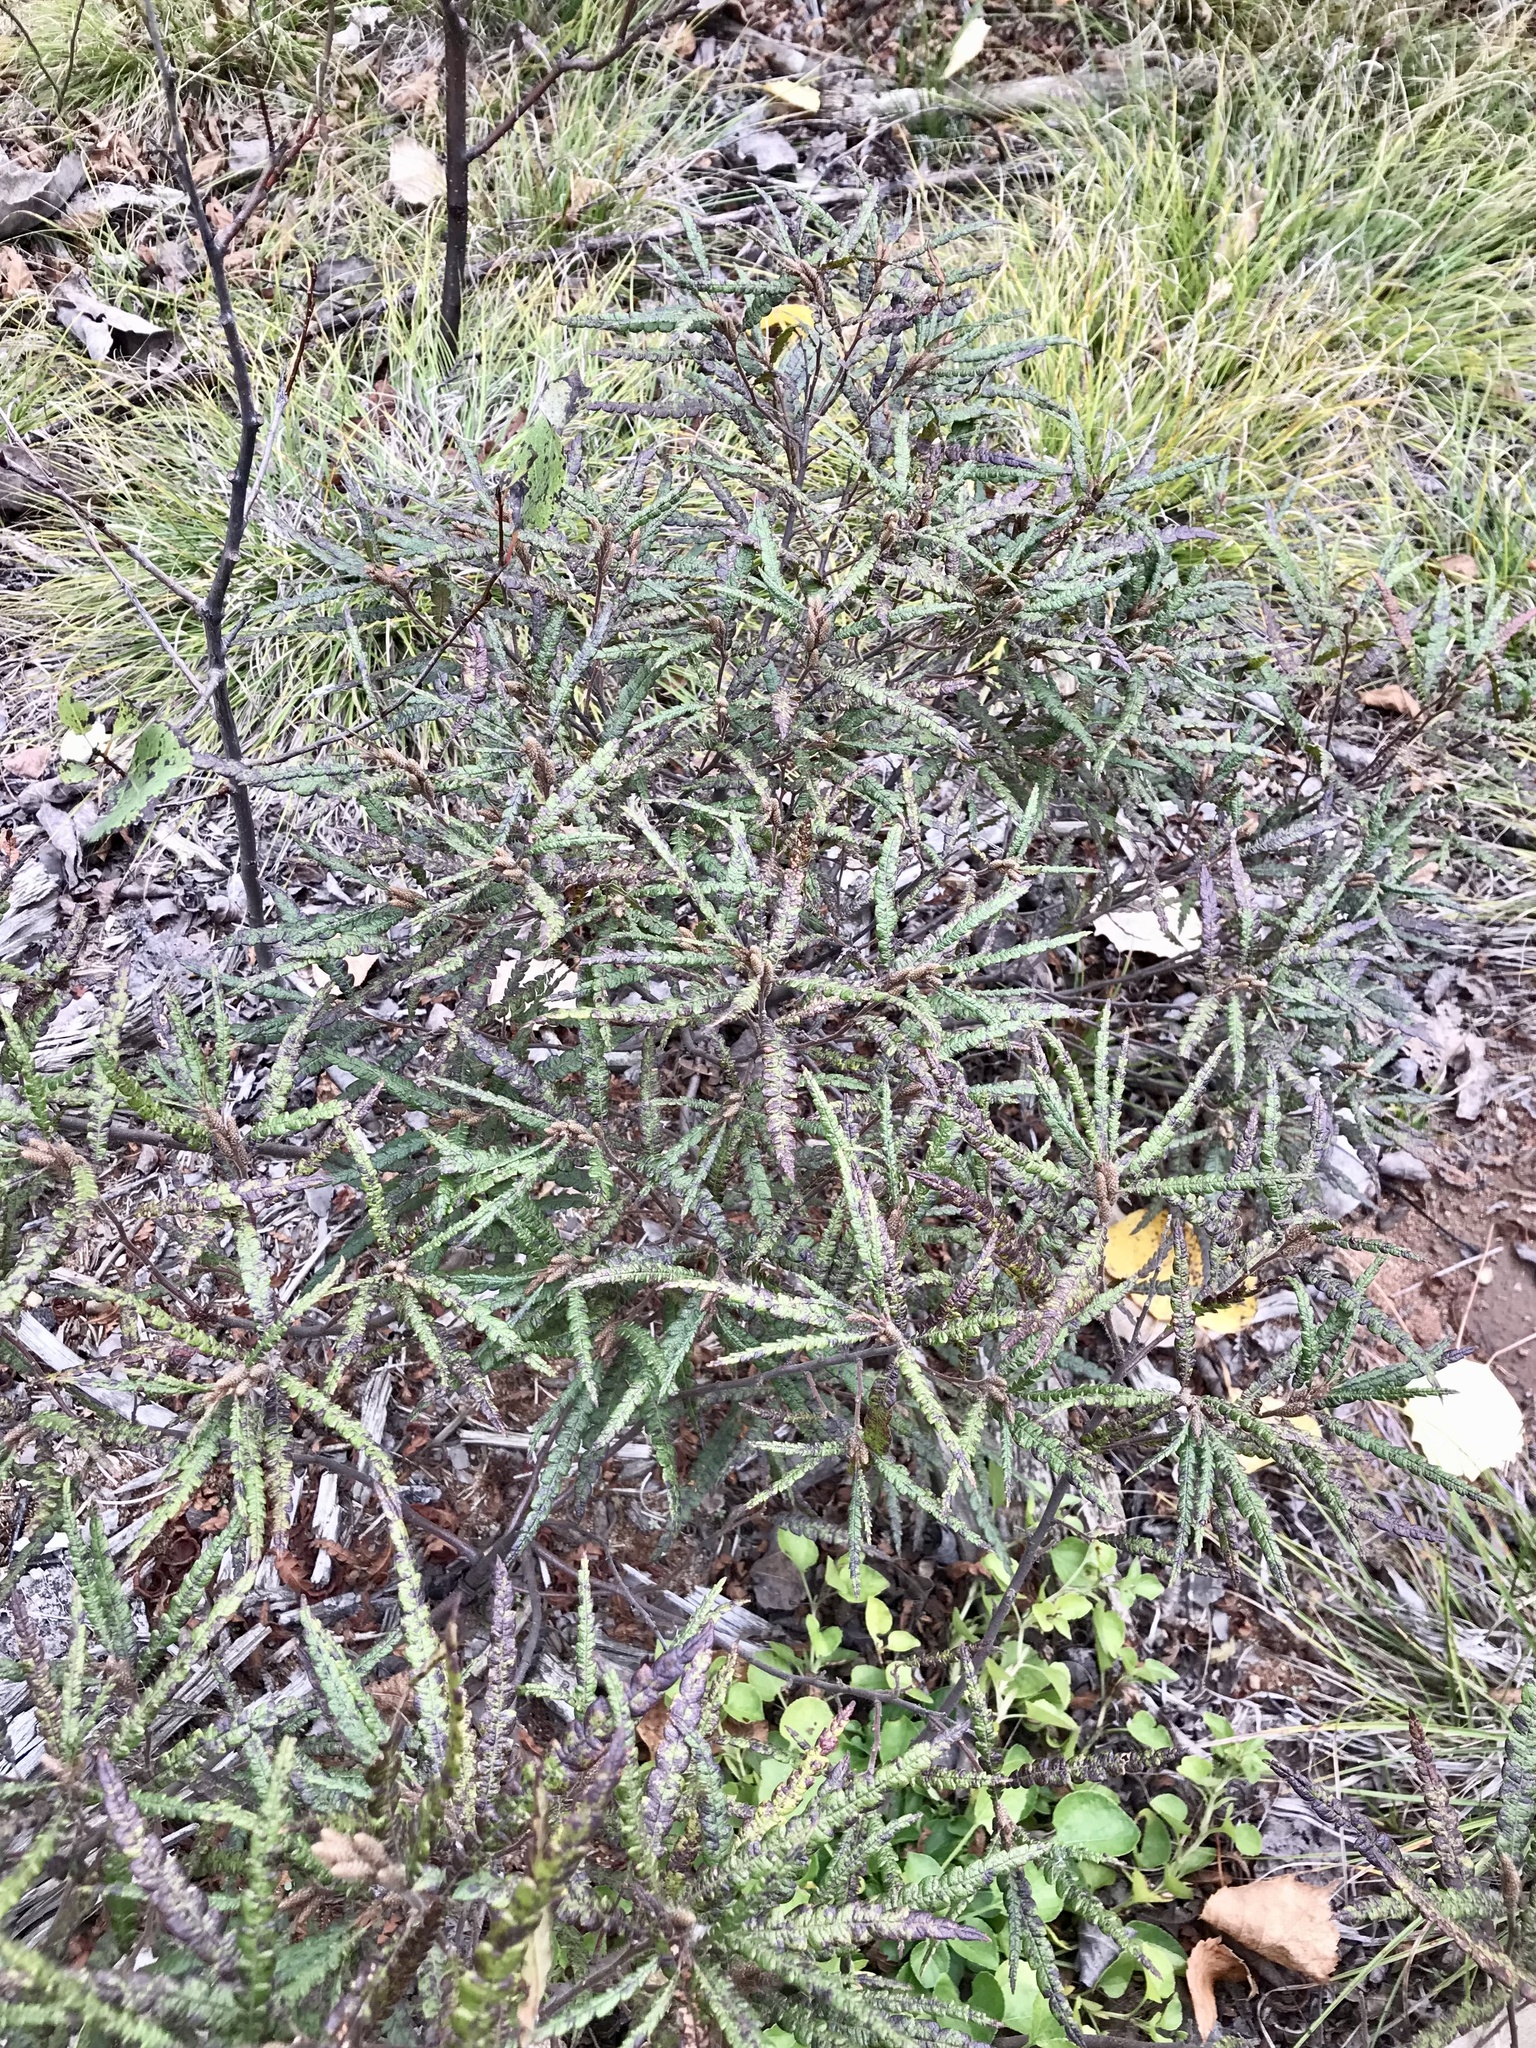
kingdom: Plantae
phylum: Tracheophyta
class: Magnoliopsida
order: Fagales
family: Myricaceae
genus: Comptonia
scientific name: Comptonia peregrina
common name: Sweet-fern
